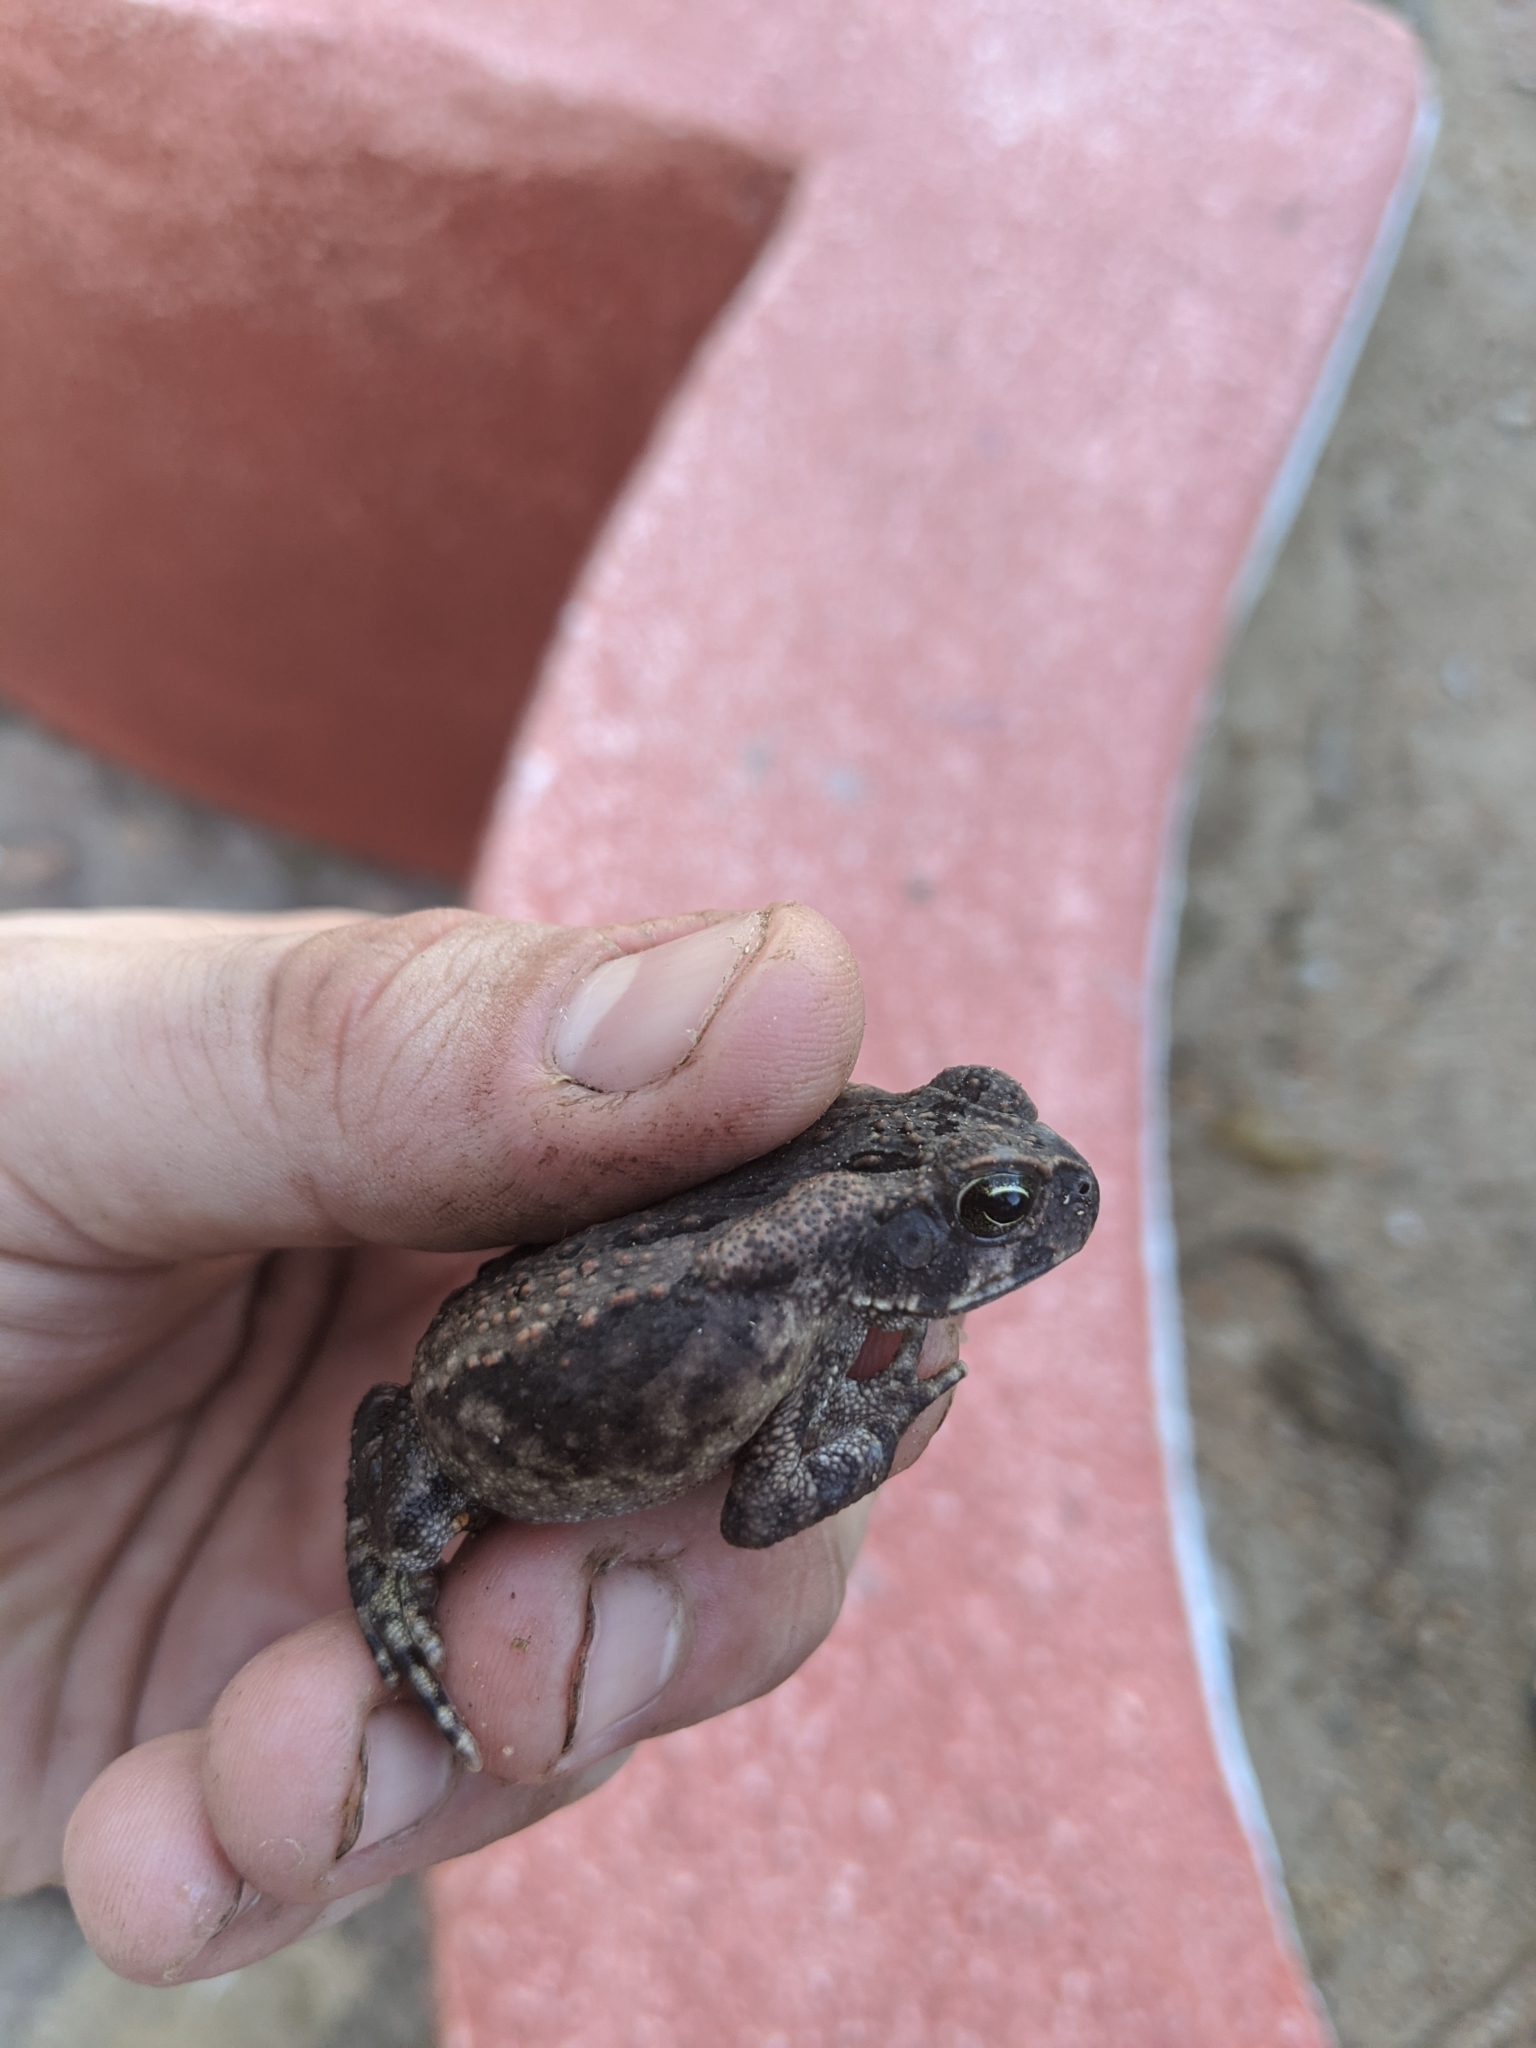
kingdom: Animalia
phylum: Chordata
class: Amphibia
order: Anura
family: Bufonidae
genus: Rhinella
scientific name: Rhinella horribilis
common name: Mesoamerican cane toad
